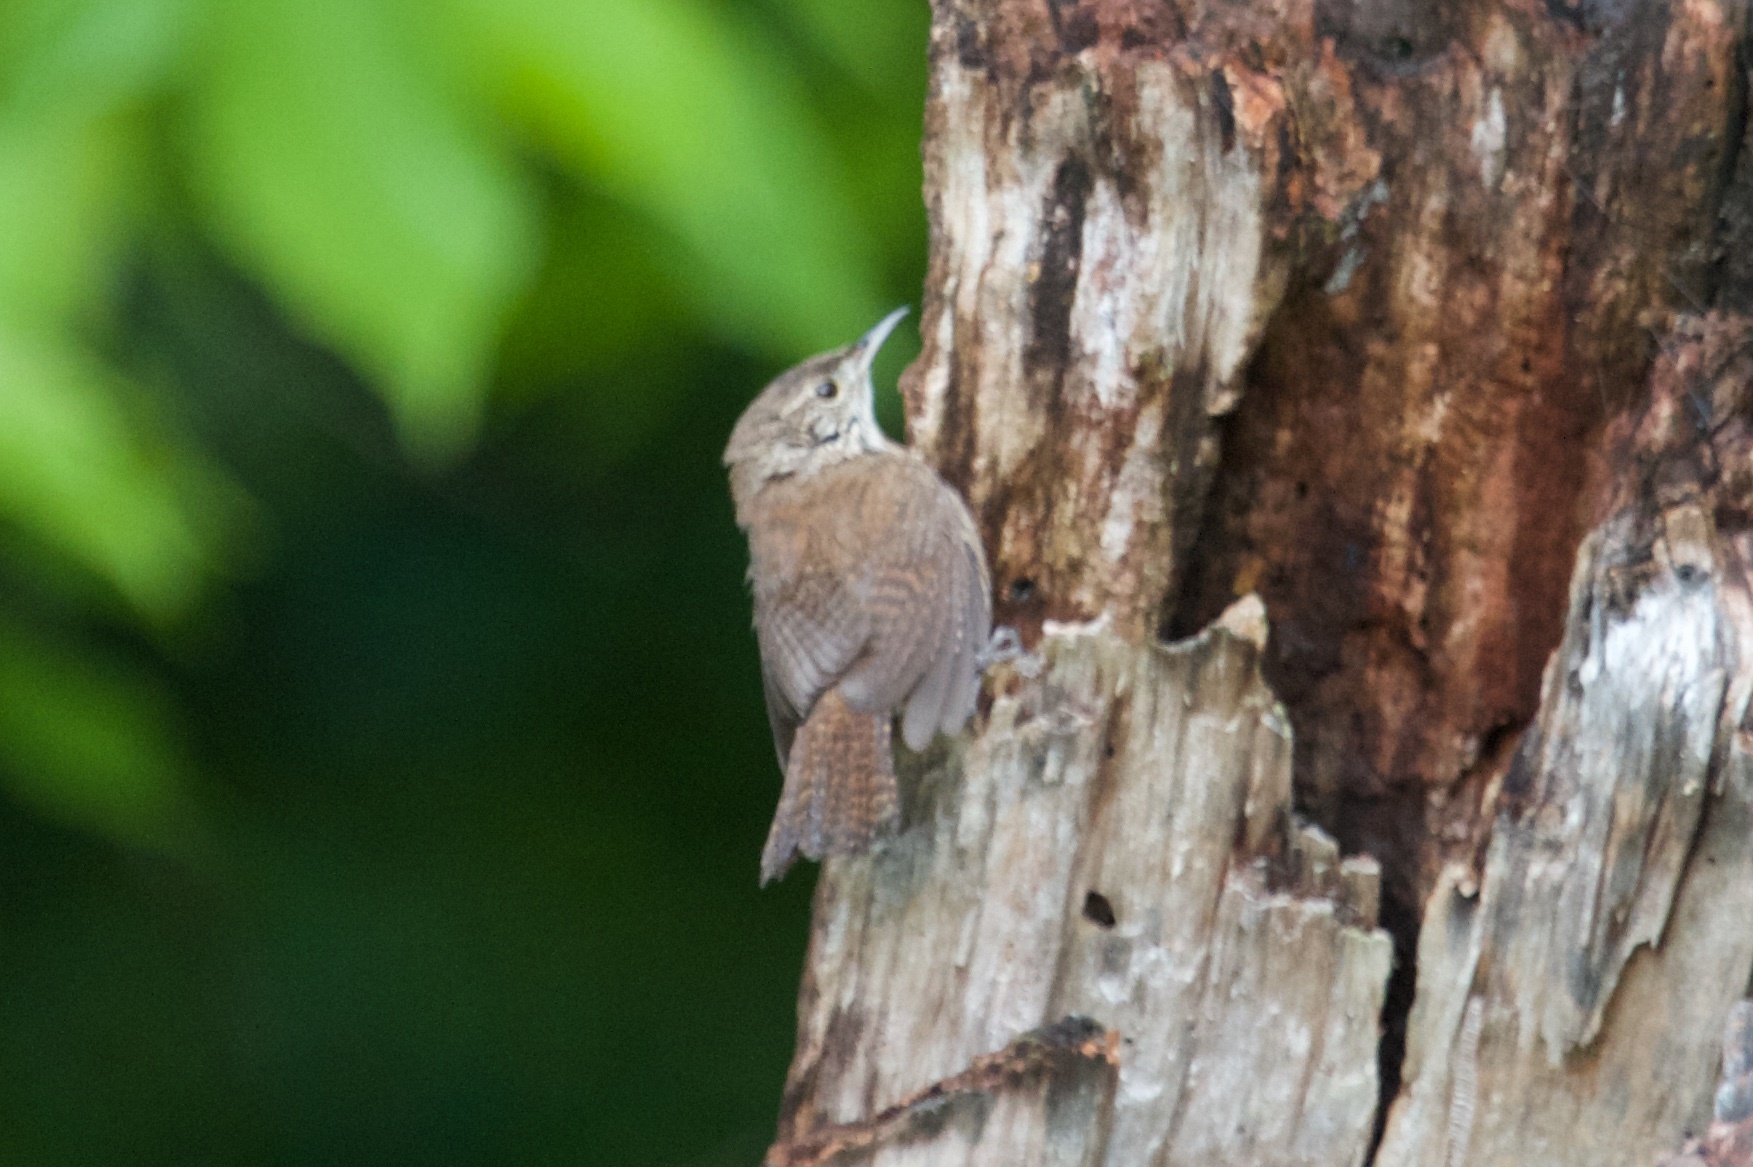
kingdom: Animalia
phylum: Chordata
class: Aves
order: Passeriformes
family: Troglodytidae
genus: Troglodytes
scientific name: Troglodytes aedon
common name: House wren
